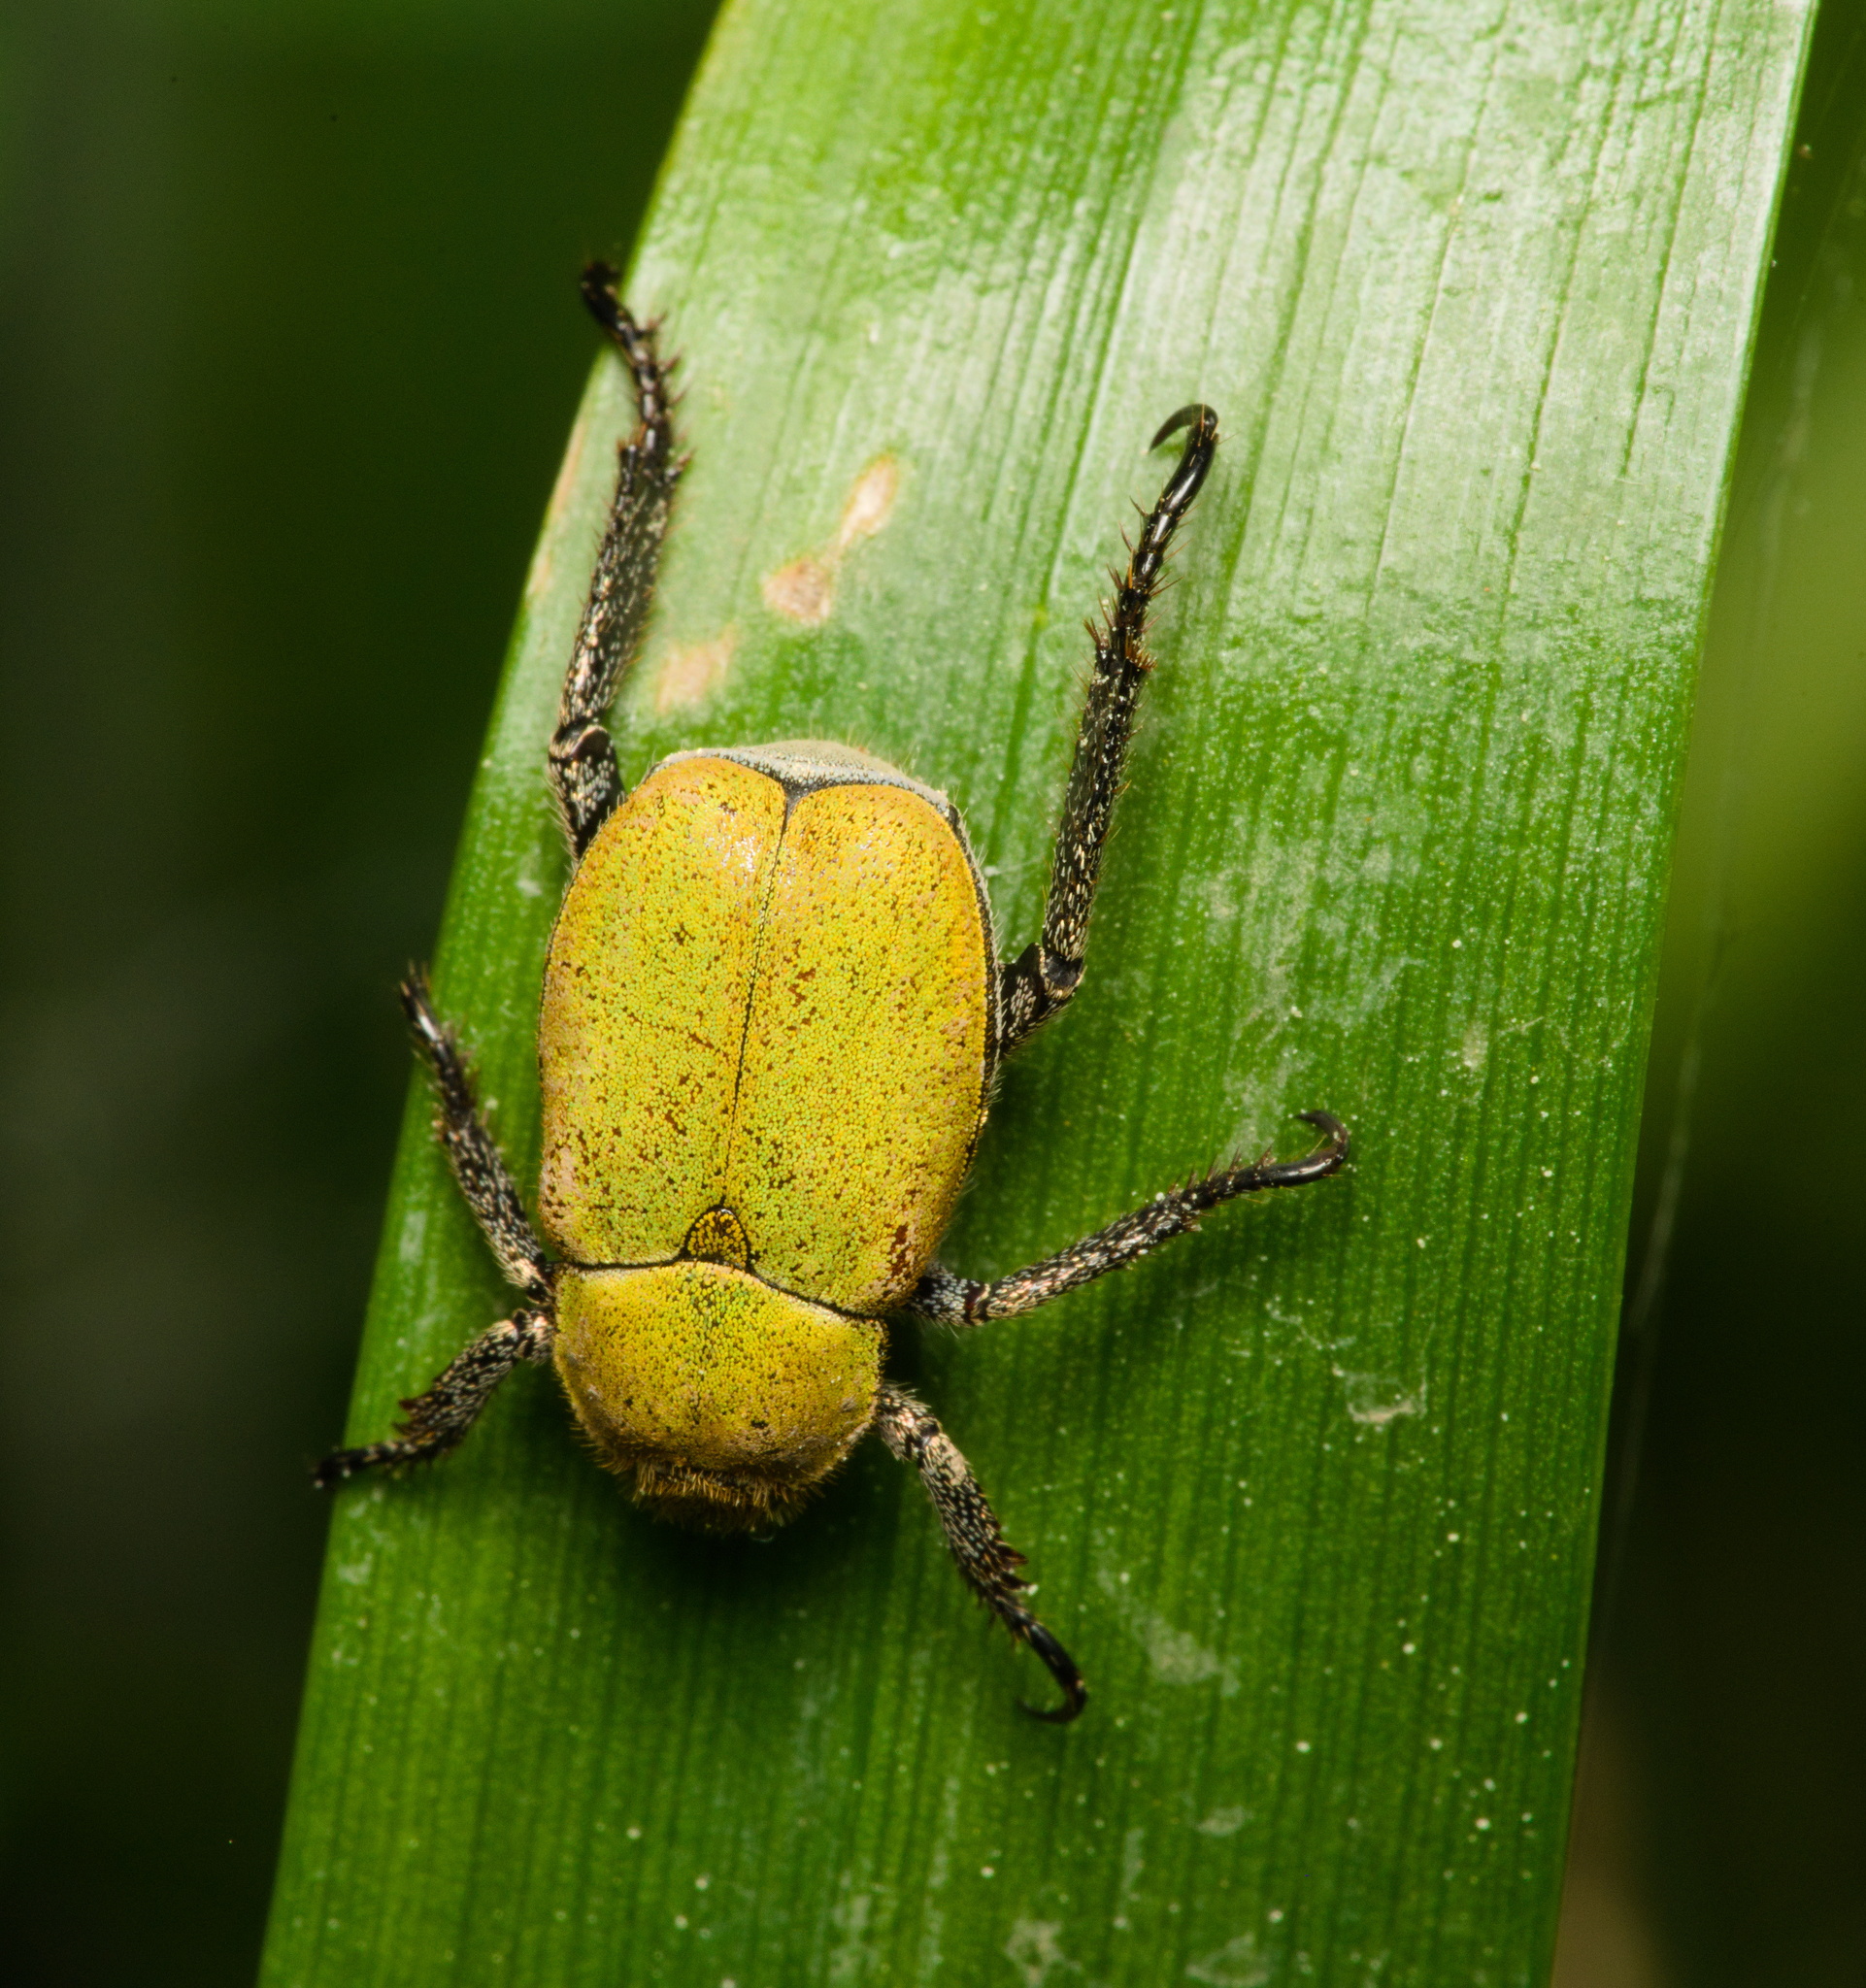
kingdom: Animalia
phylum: Arthropoda
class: Insecta
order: Coleoptera
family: Scarabaeidae
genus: Hoplia
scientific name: Hoplia argentea
